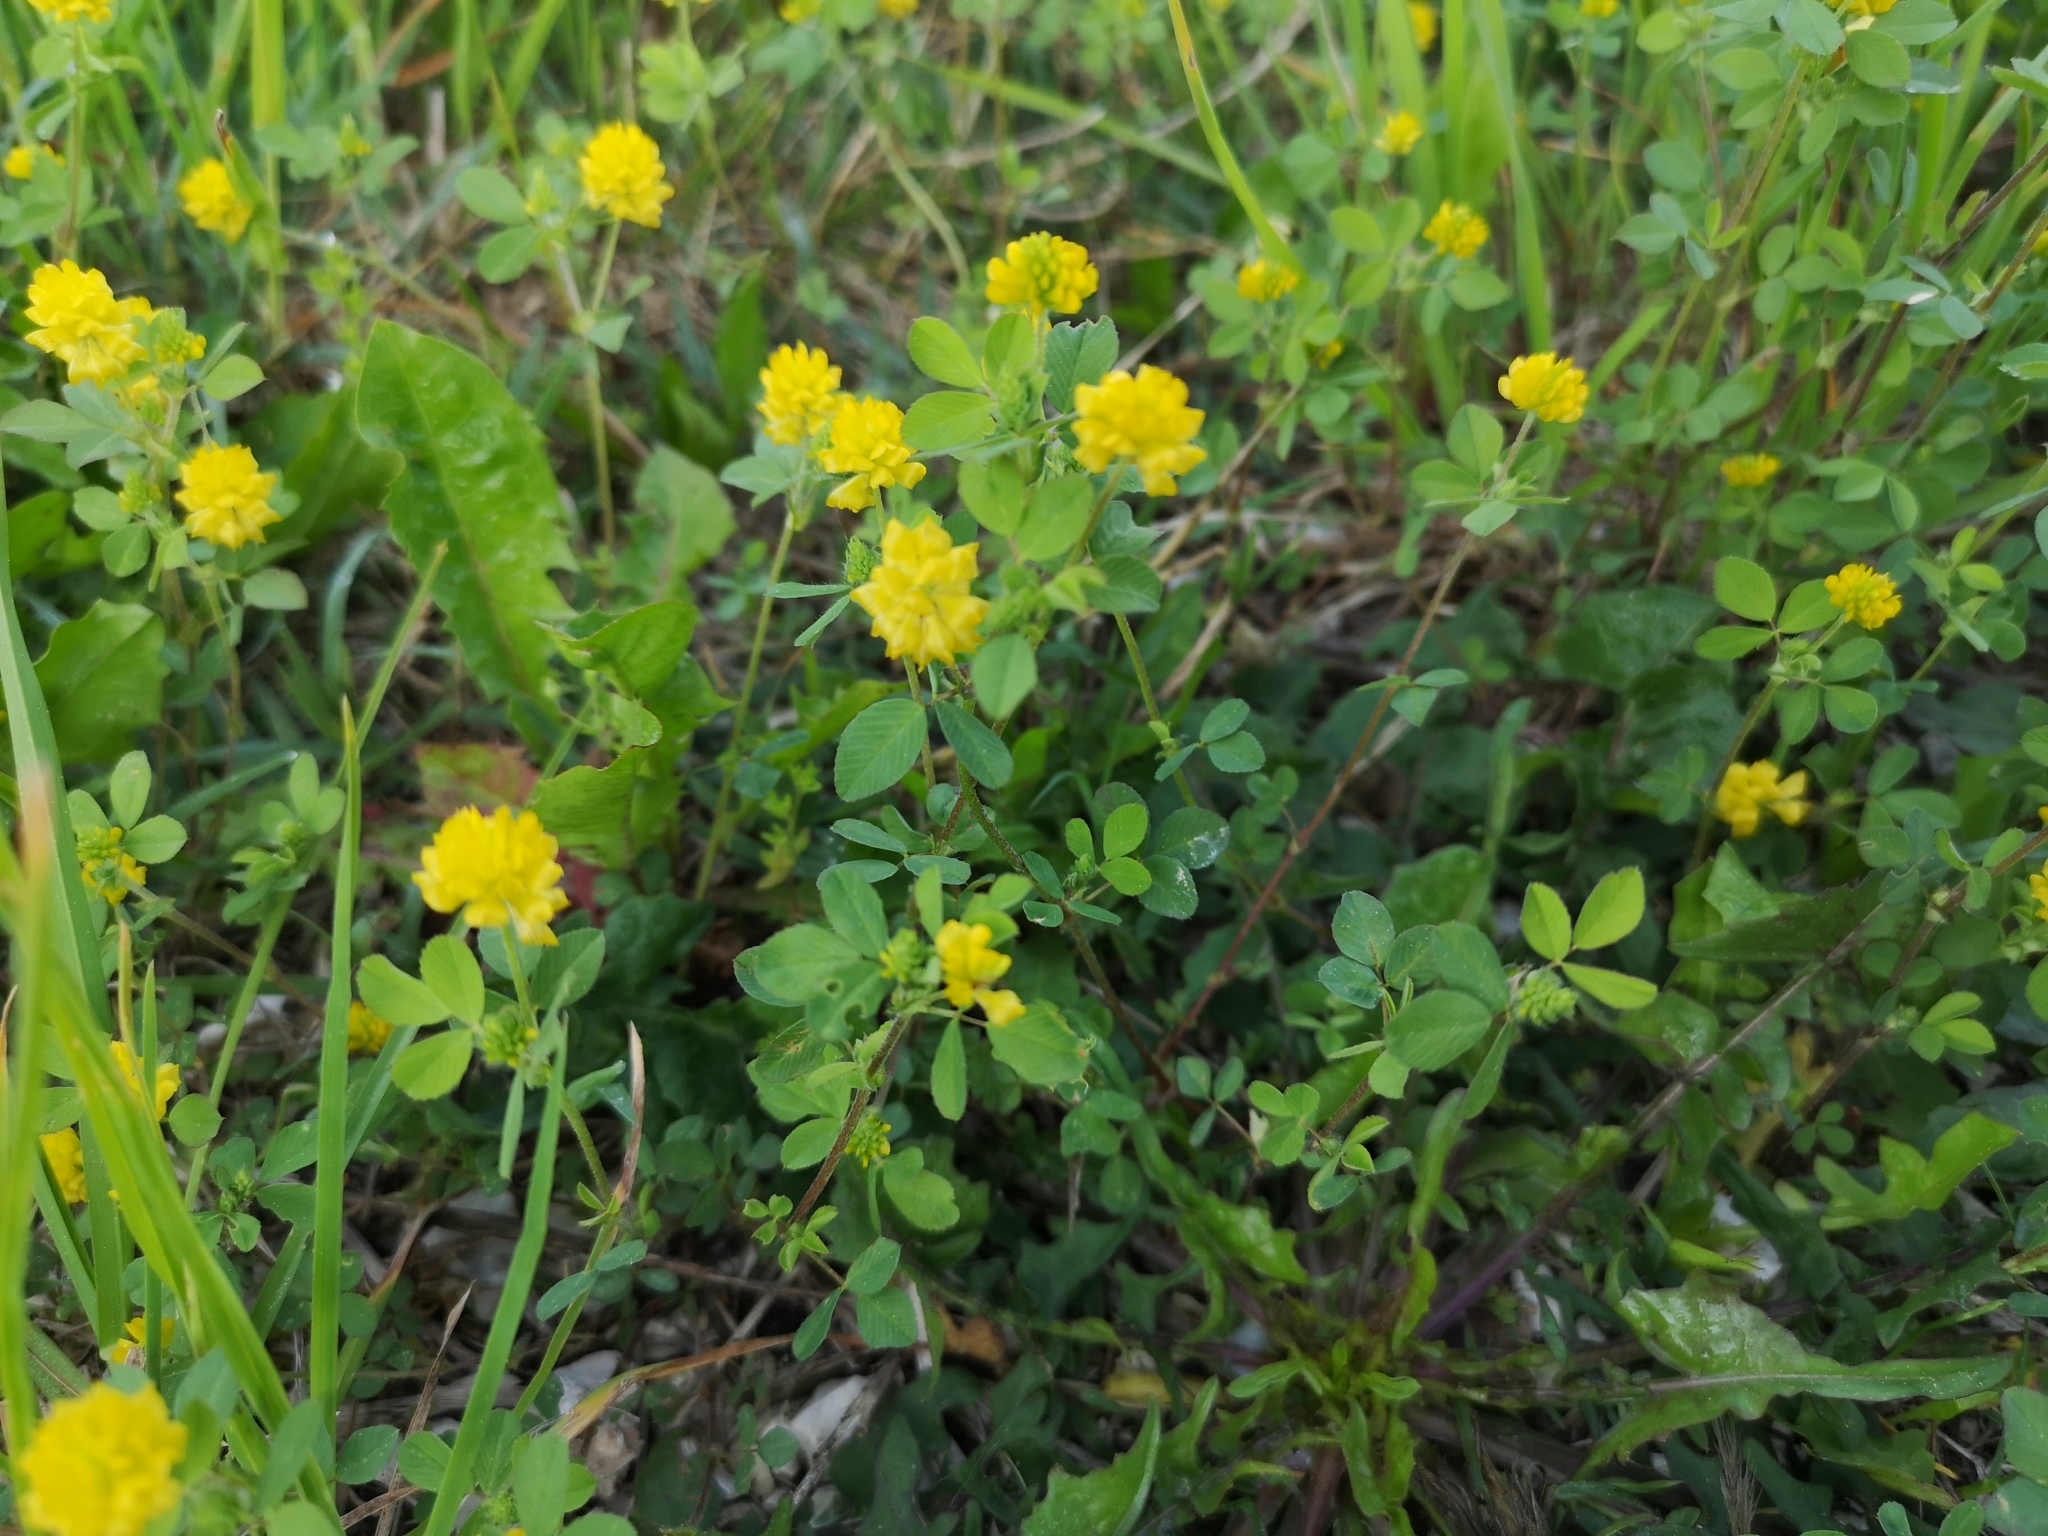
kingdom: Plantae
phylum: Tracheophyta
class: Magnoliopsida
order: Fabales
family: Fabaceae
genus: Trifolium
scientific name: Trifolium campestre
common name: Field clover
